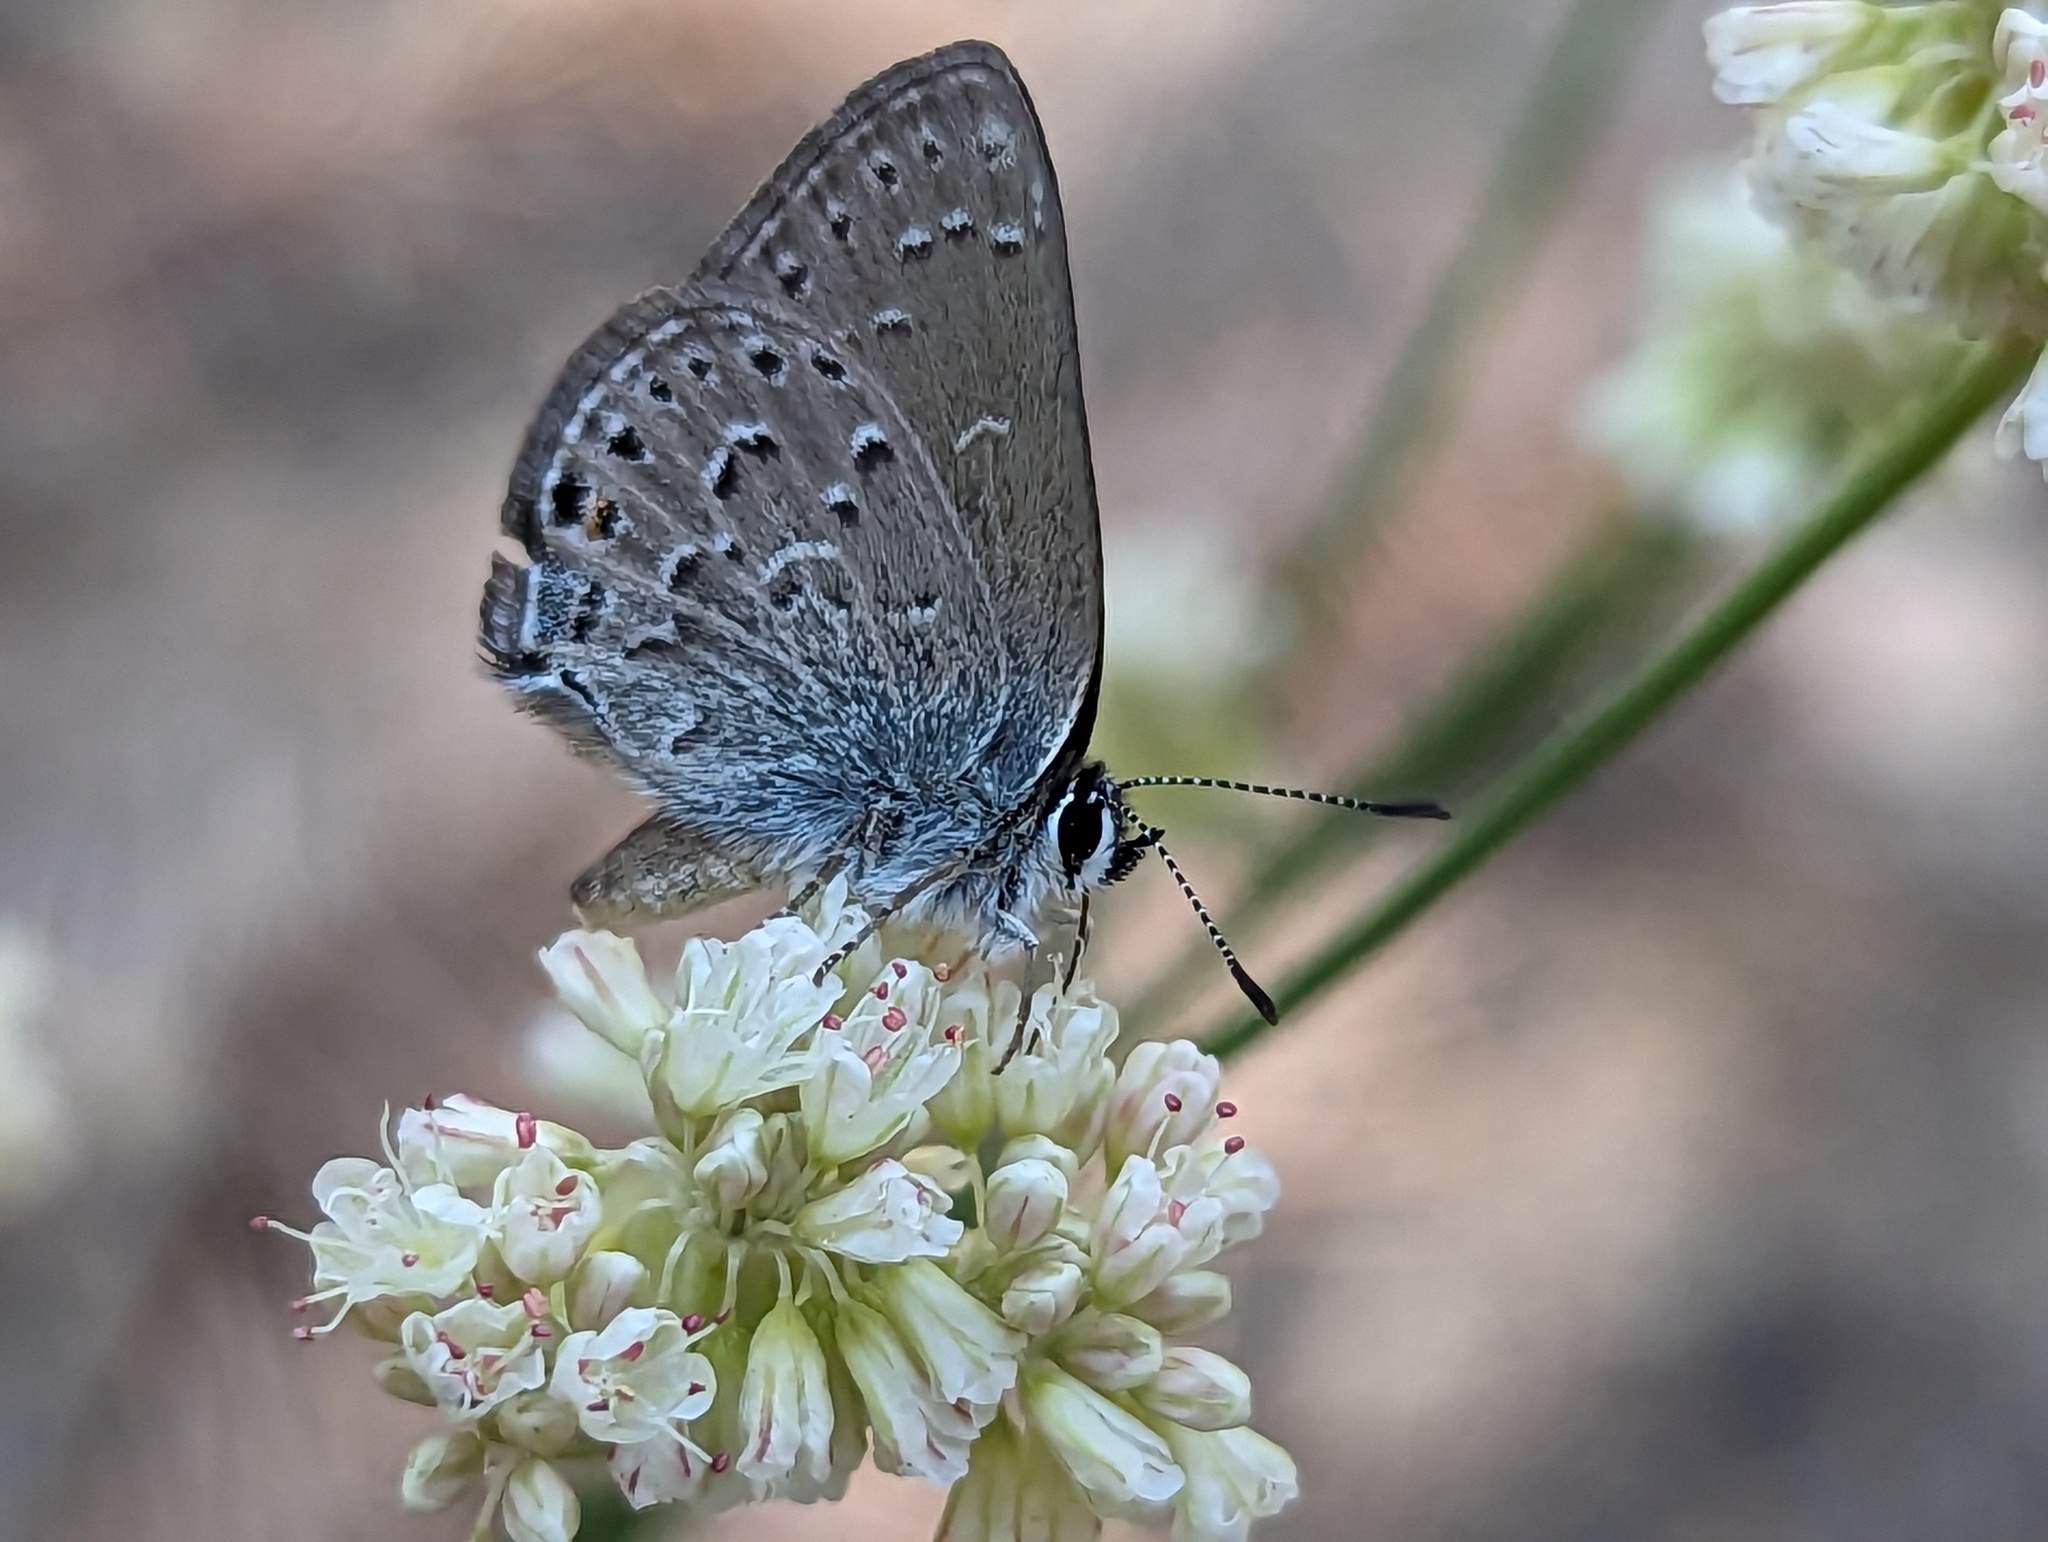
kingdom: Animalia
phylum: Arthropoda
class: Insecta
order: Lepidoptera
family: Lycaenidae
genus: Satyrium
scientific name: Satyrium behrii
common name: Behr's hairstreak
